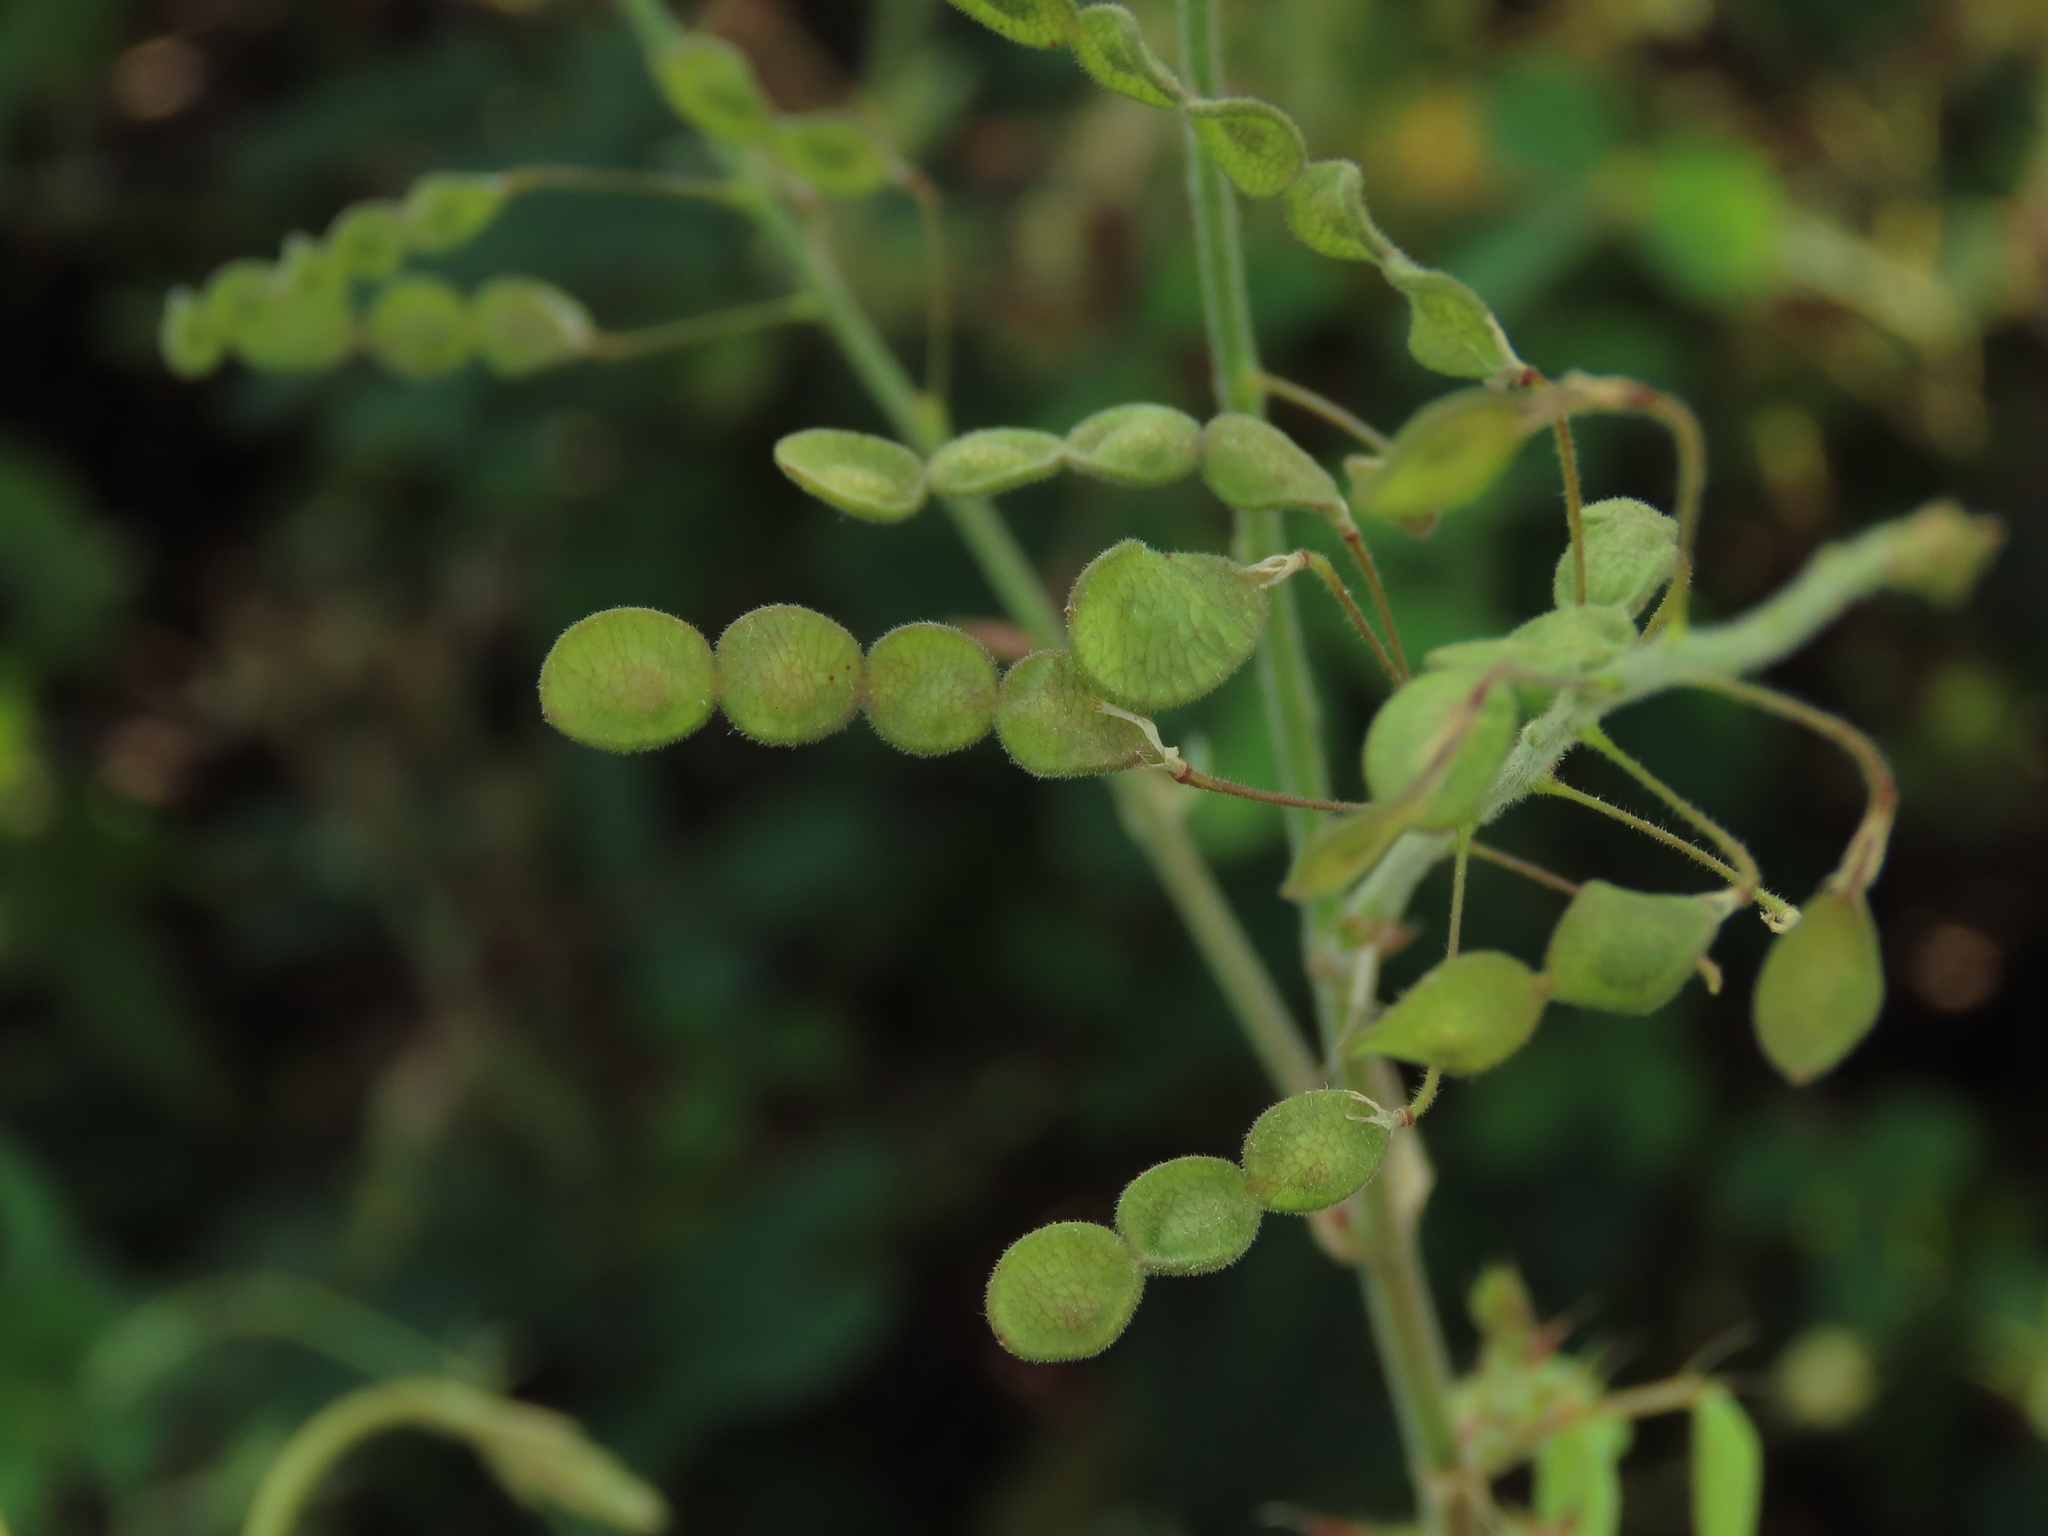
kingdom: Plantae
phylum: Tracheophyta
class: Magnoliopsida
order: Fabales
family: Fabaceae
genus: Desmodium
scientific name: Desmodium tortuosum
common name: Dixie ticktrefoil
